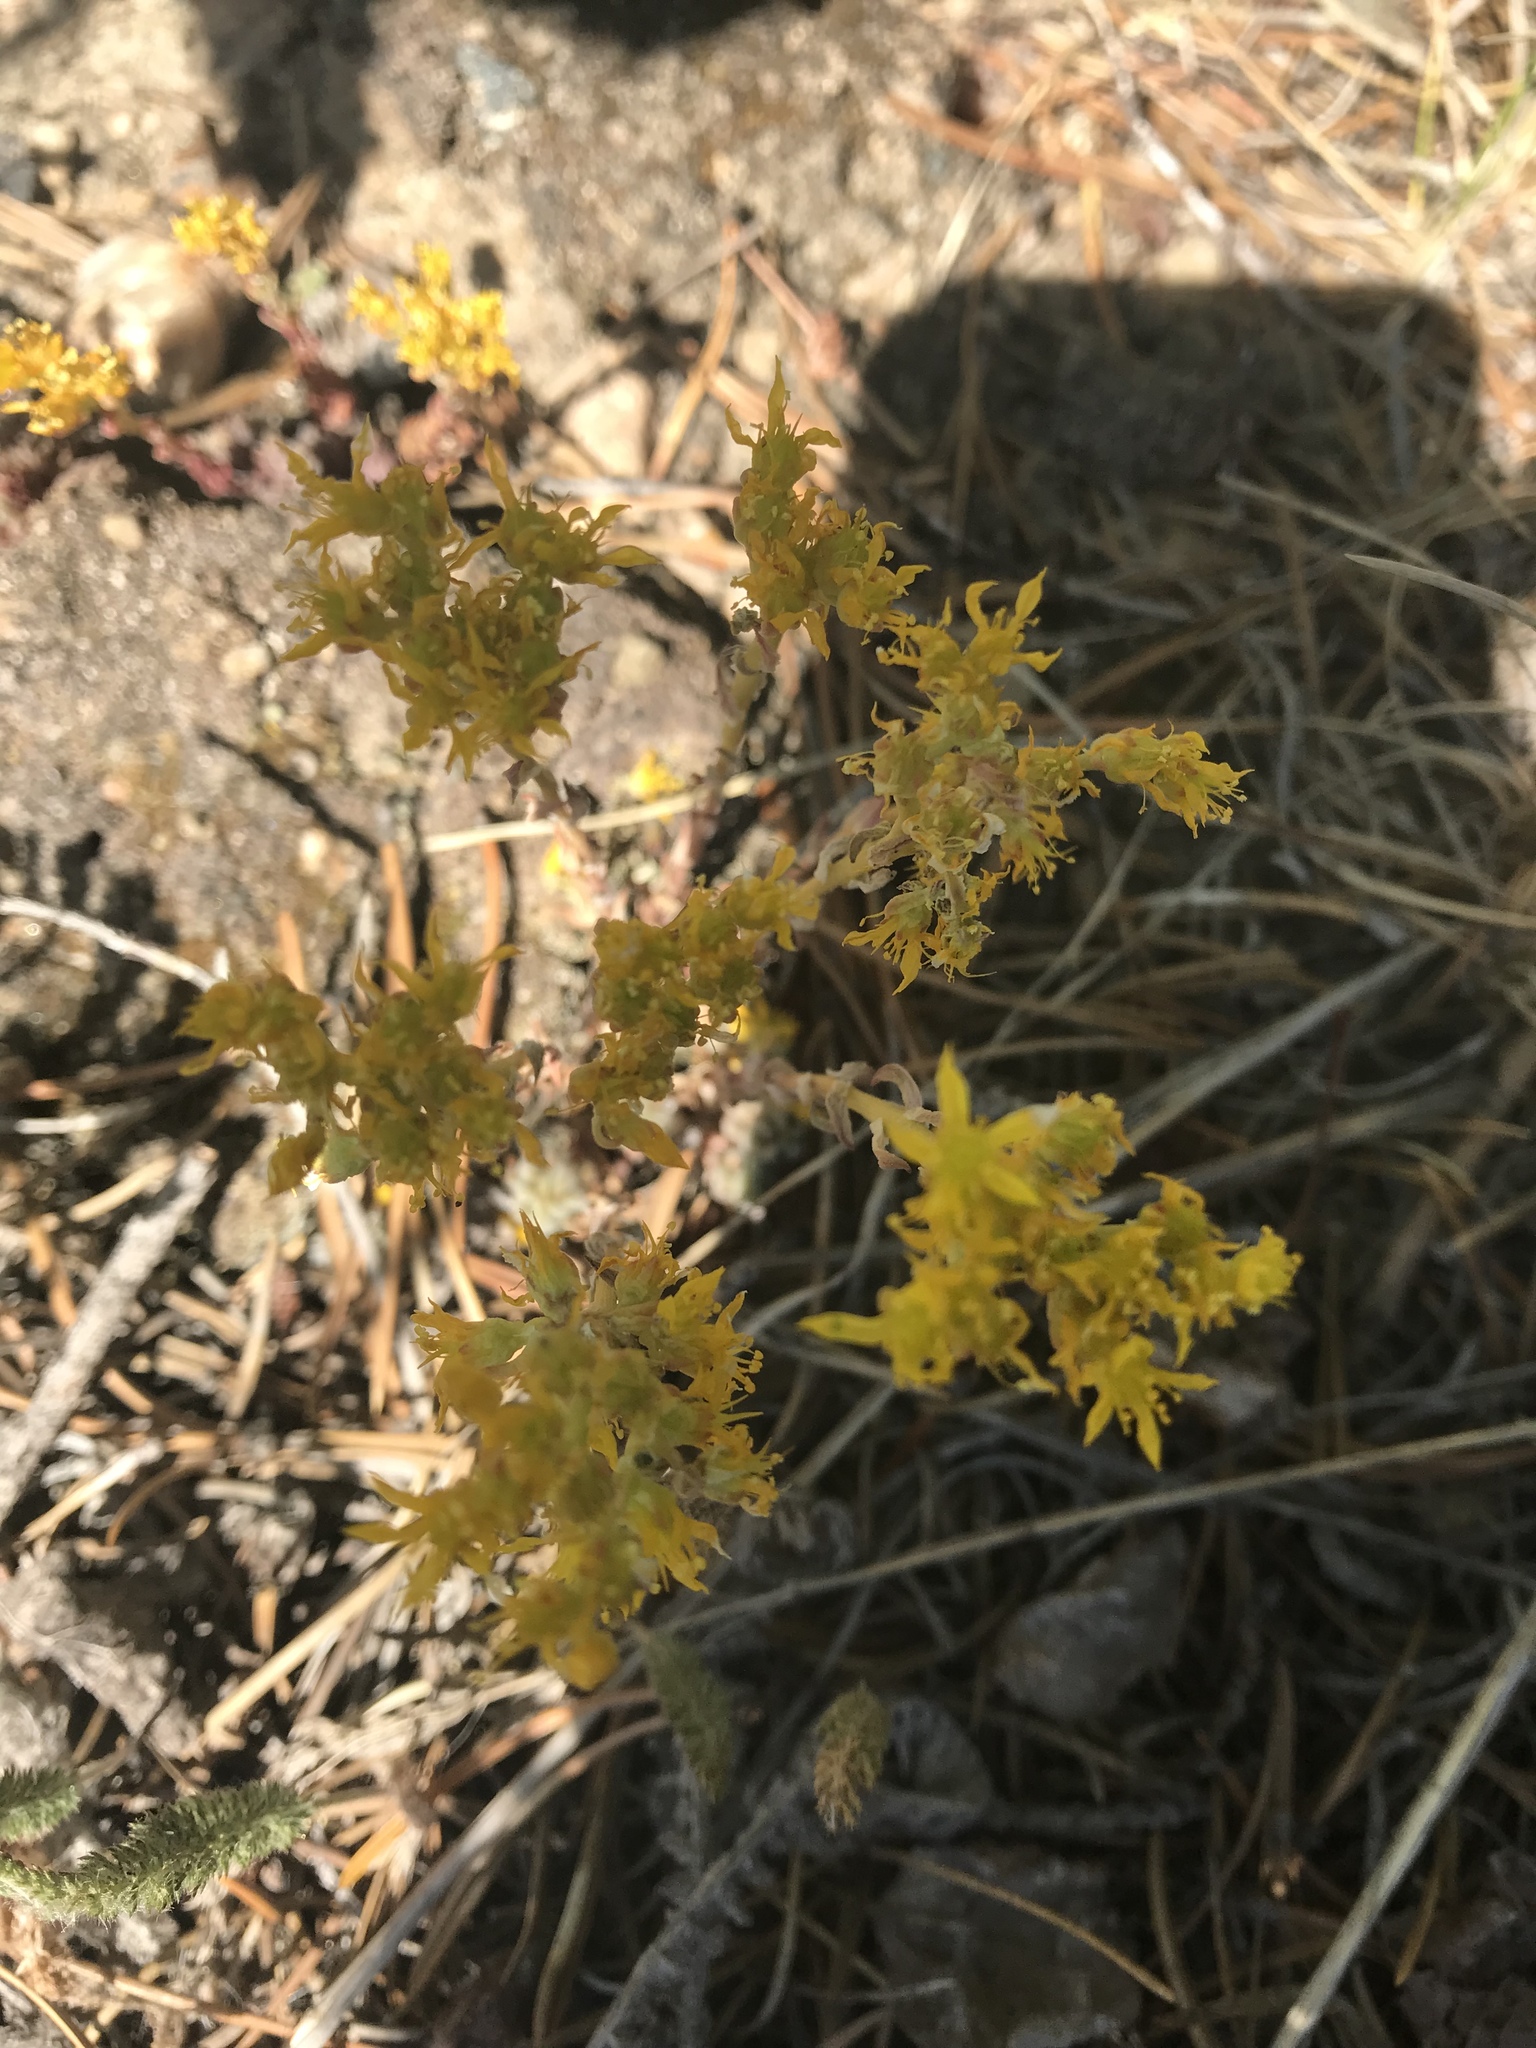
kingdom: Plantae
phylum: Tracheophyta
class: Magnoliopsida
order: Saxifragales
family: Crassulaceae
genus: Sedum
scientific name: Sedum lanceolatum
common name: Common stonecrop
